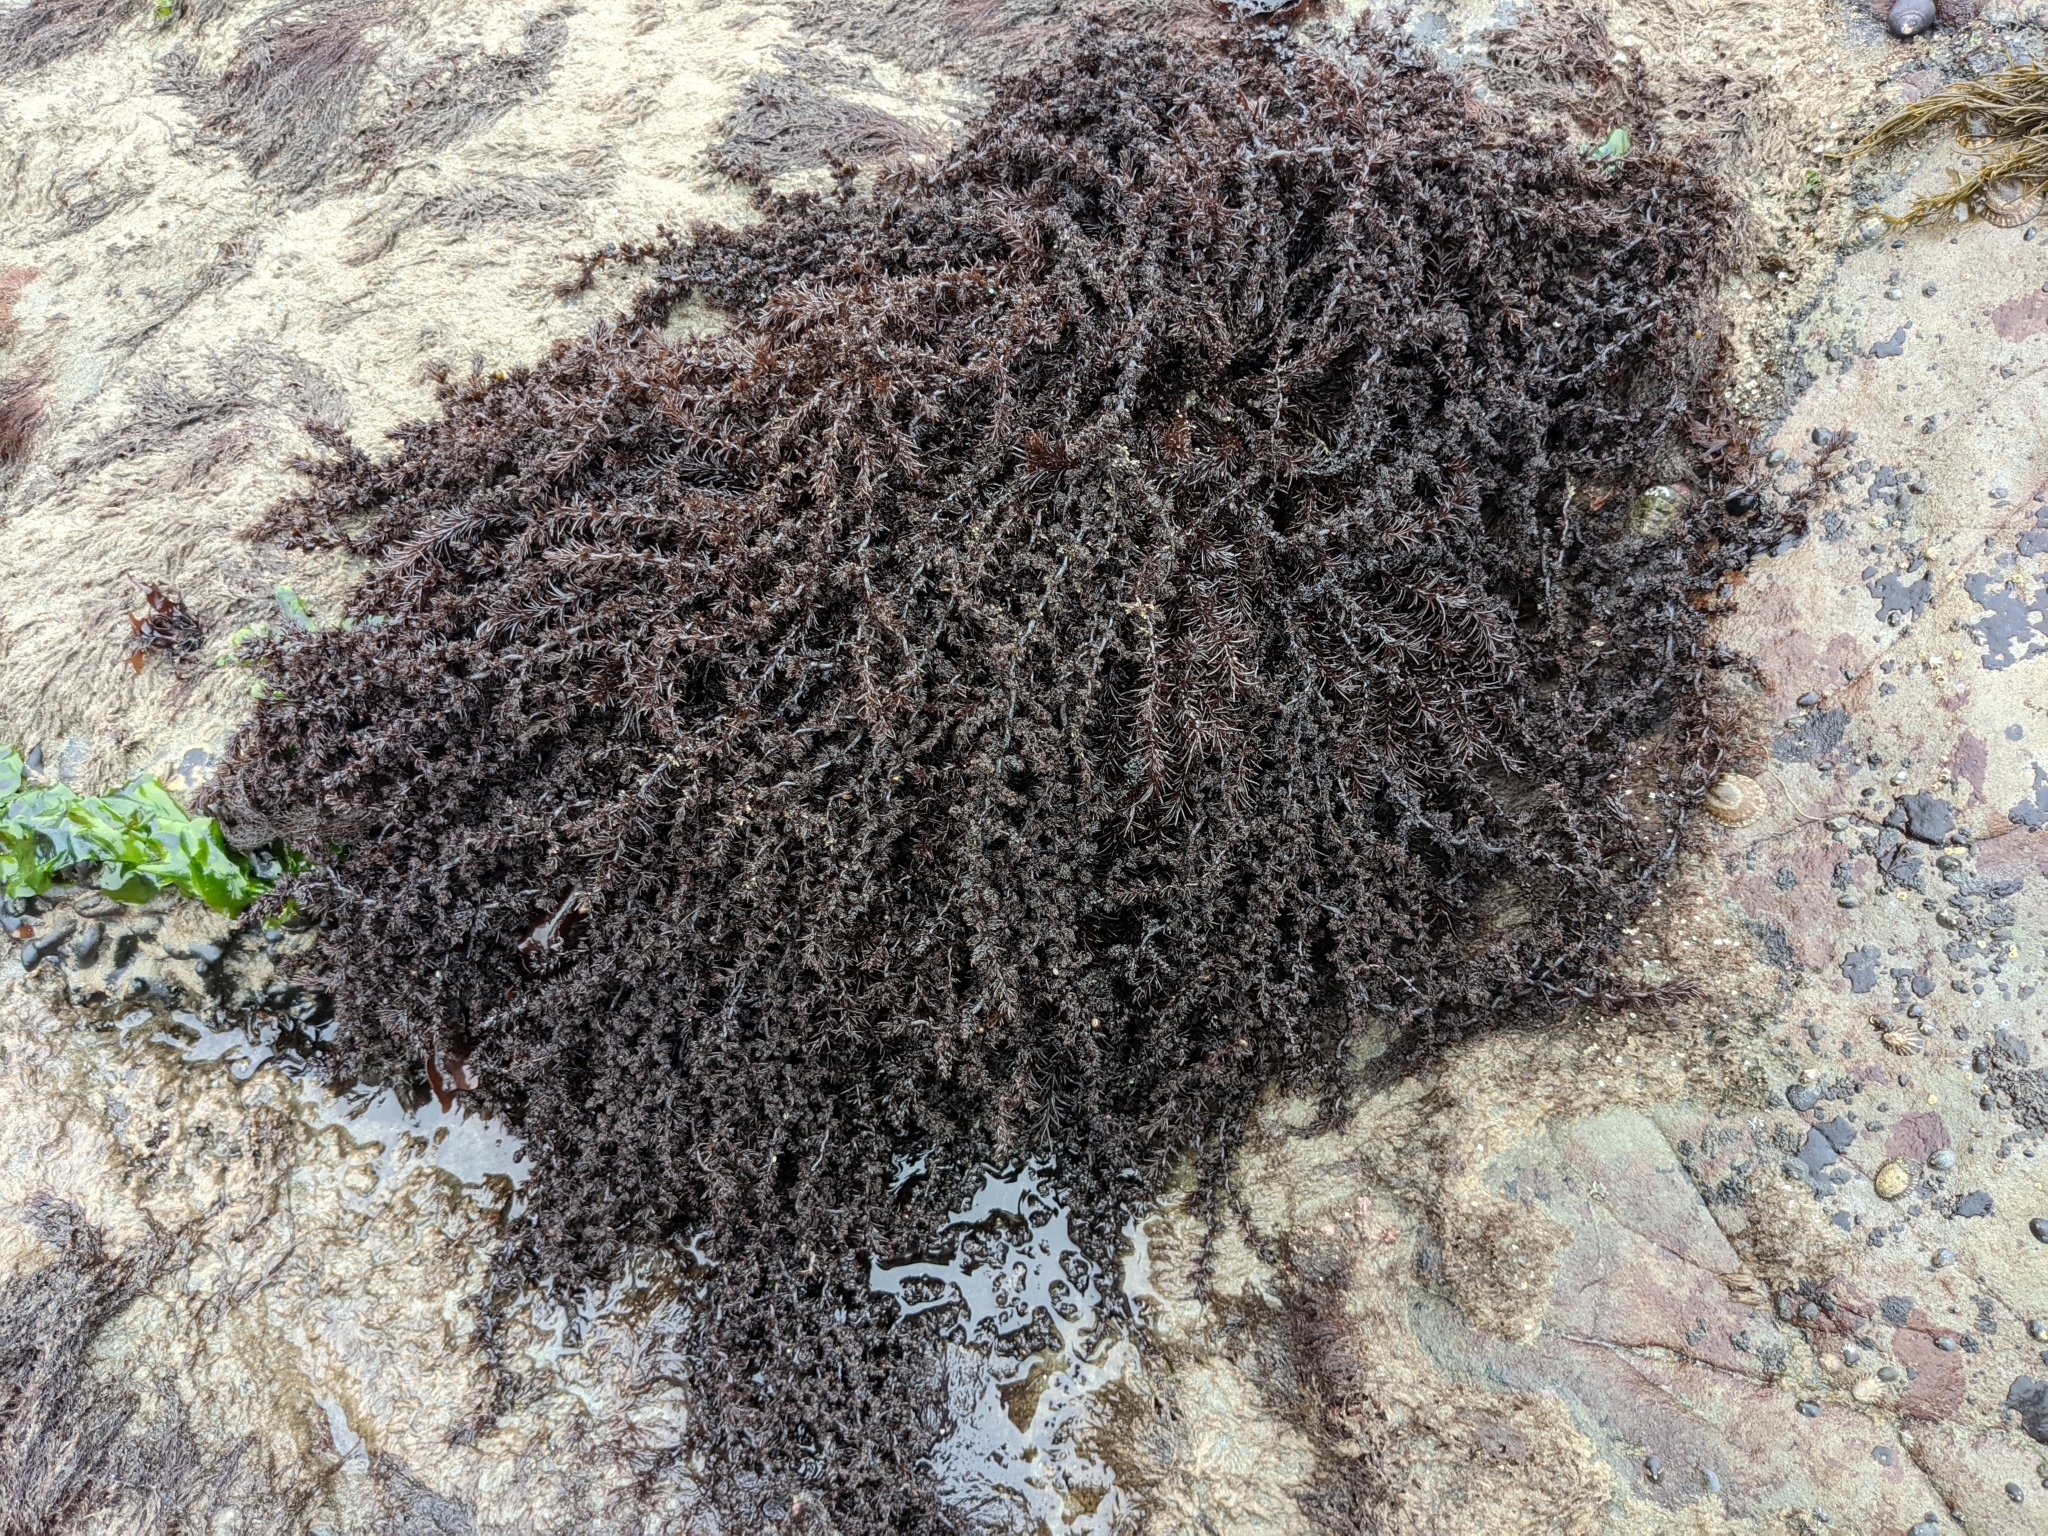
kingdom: Plantae
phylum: Rhodophyta
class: Florideophyceae
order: Ceramiales
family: Rhodomelaceae
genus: Neorhodomela
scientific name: Neorhodomela larix
